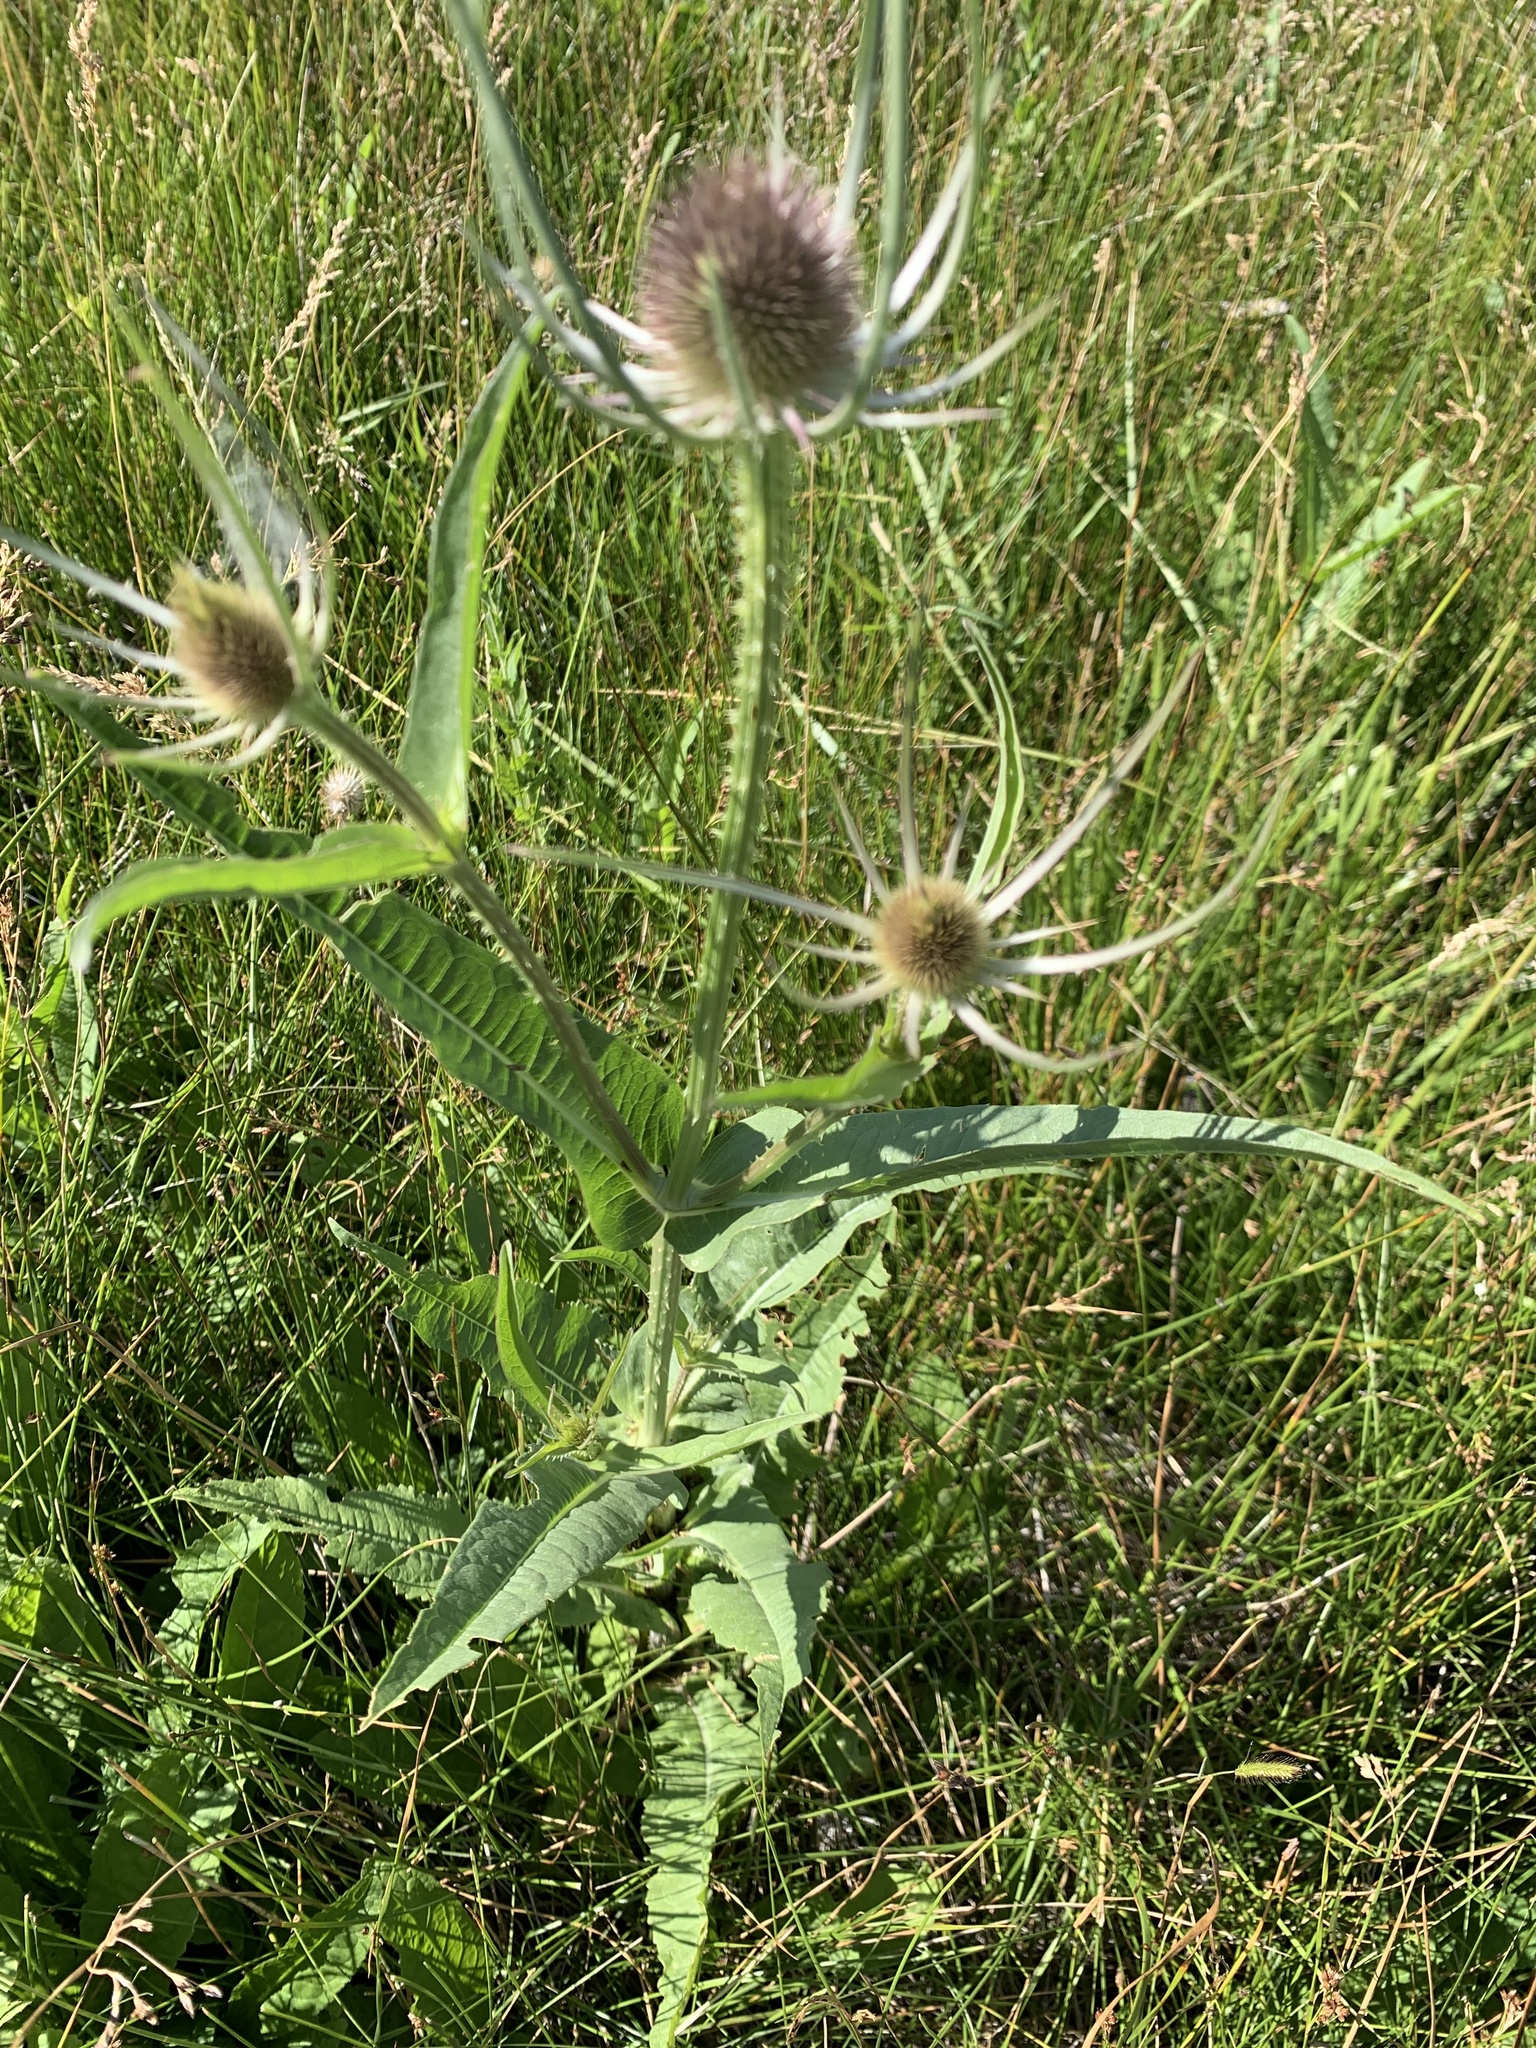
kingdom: Plantae
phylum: Tracheophyta
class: Magnoliopsida
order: Dipsacales
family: Caprifoliaceae
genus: Dipsacus
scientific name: Dipsacus fullonum
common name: Teasel
